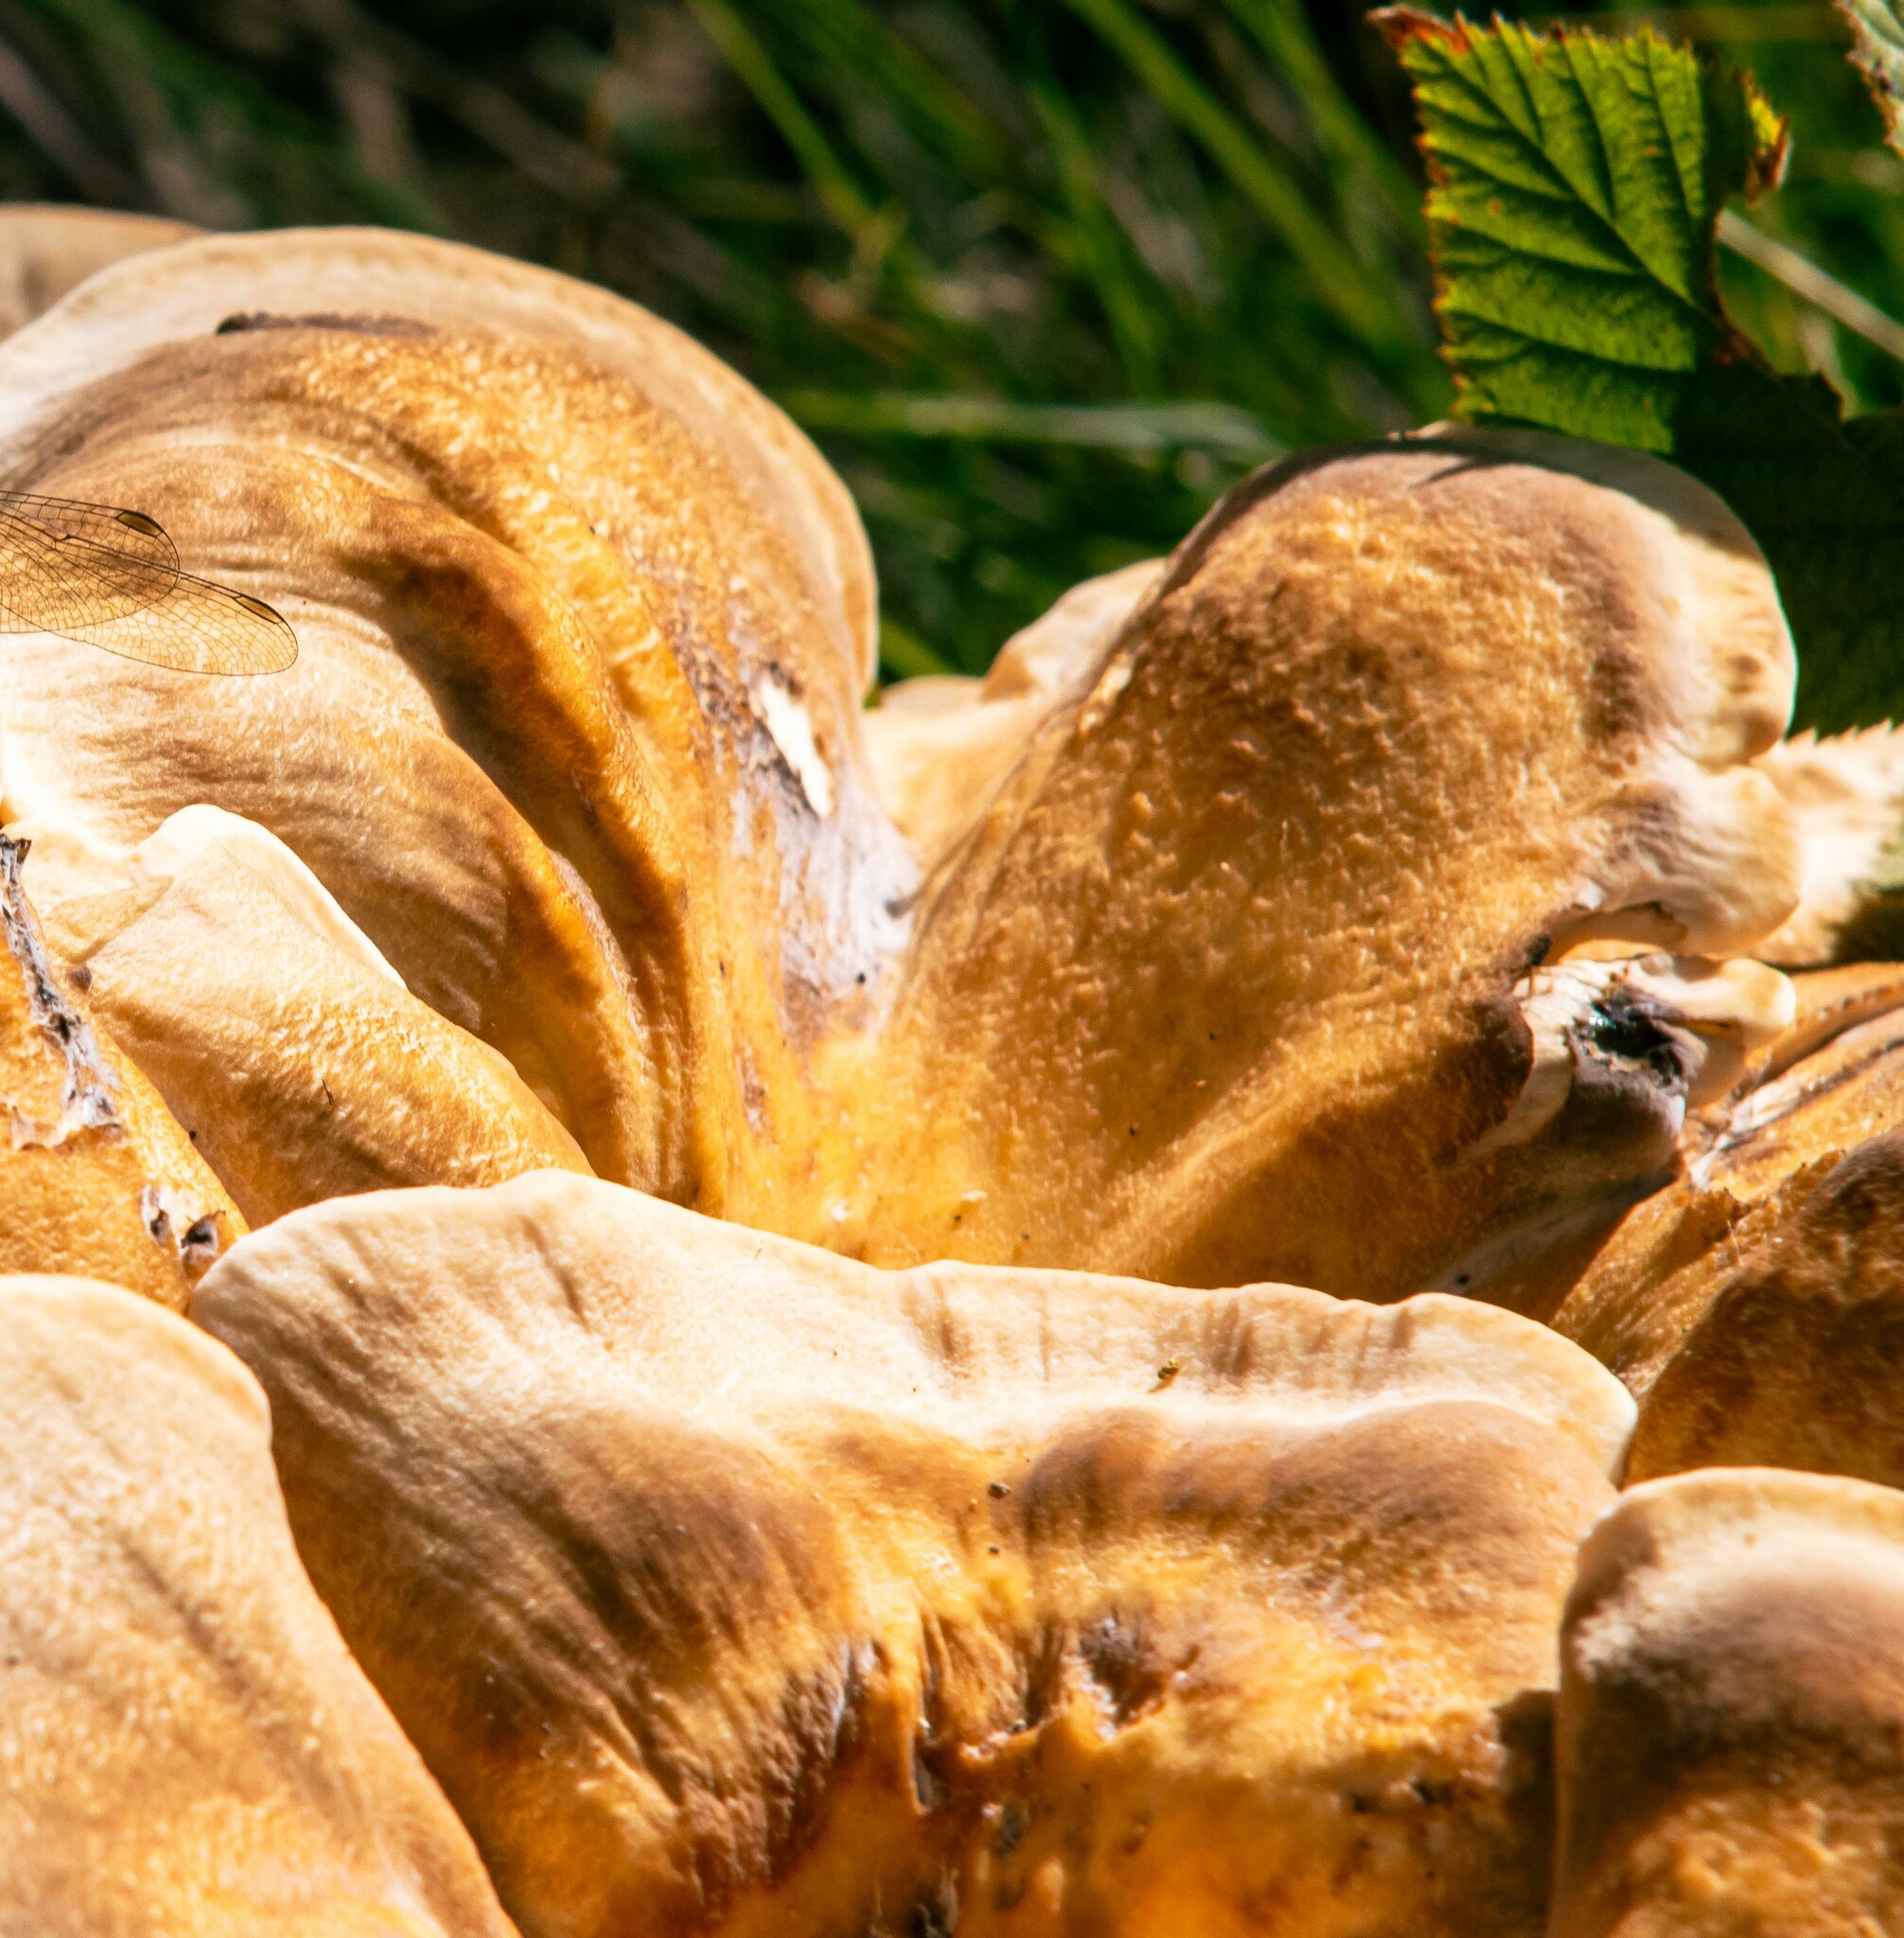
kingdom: Fungi
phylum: Basidiomycota
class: Agaricomycetes
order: Polyporales
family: Meripilaceae
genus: Meripilus
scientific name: Meripilus giganteus
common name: Giant polypore
